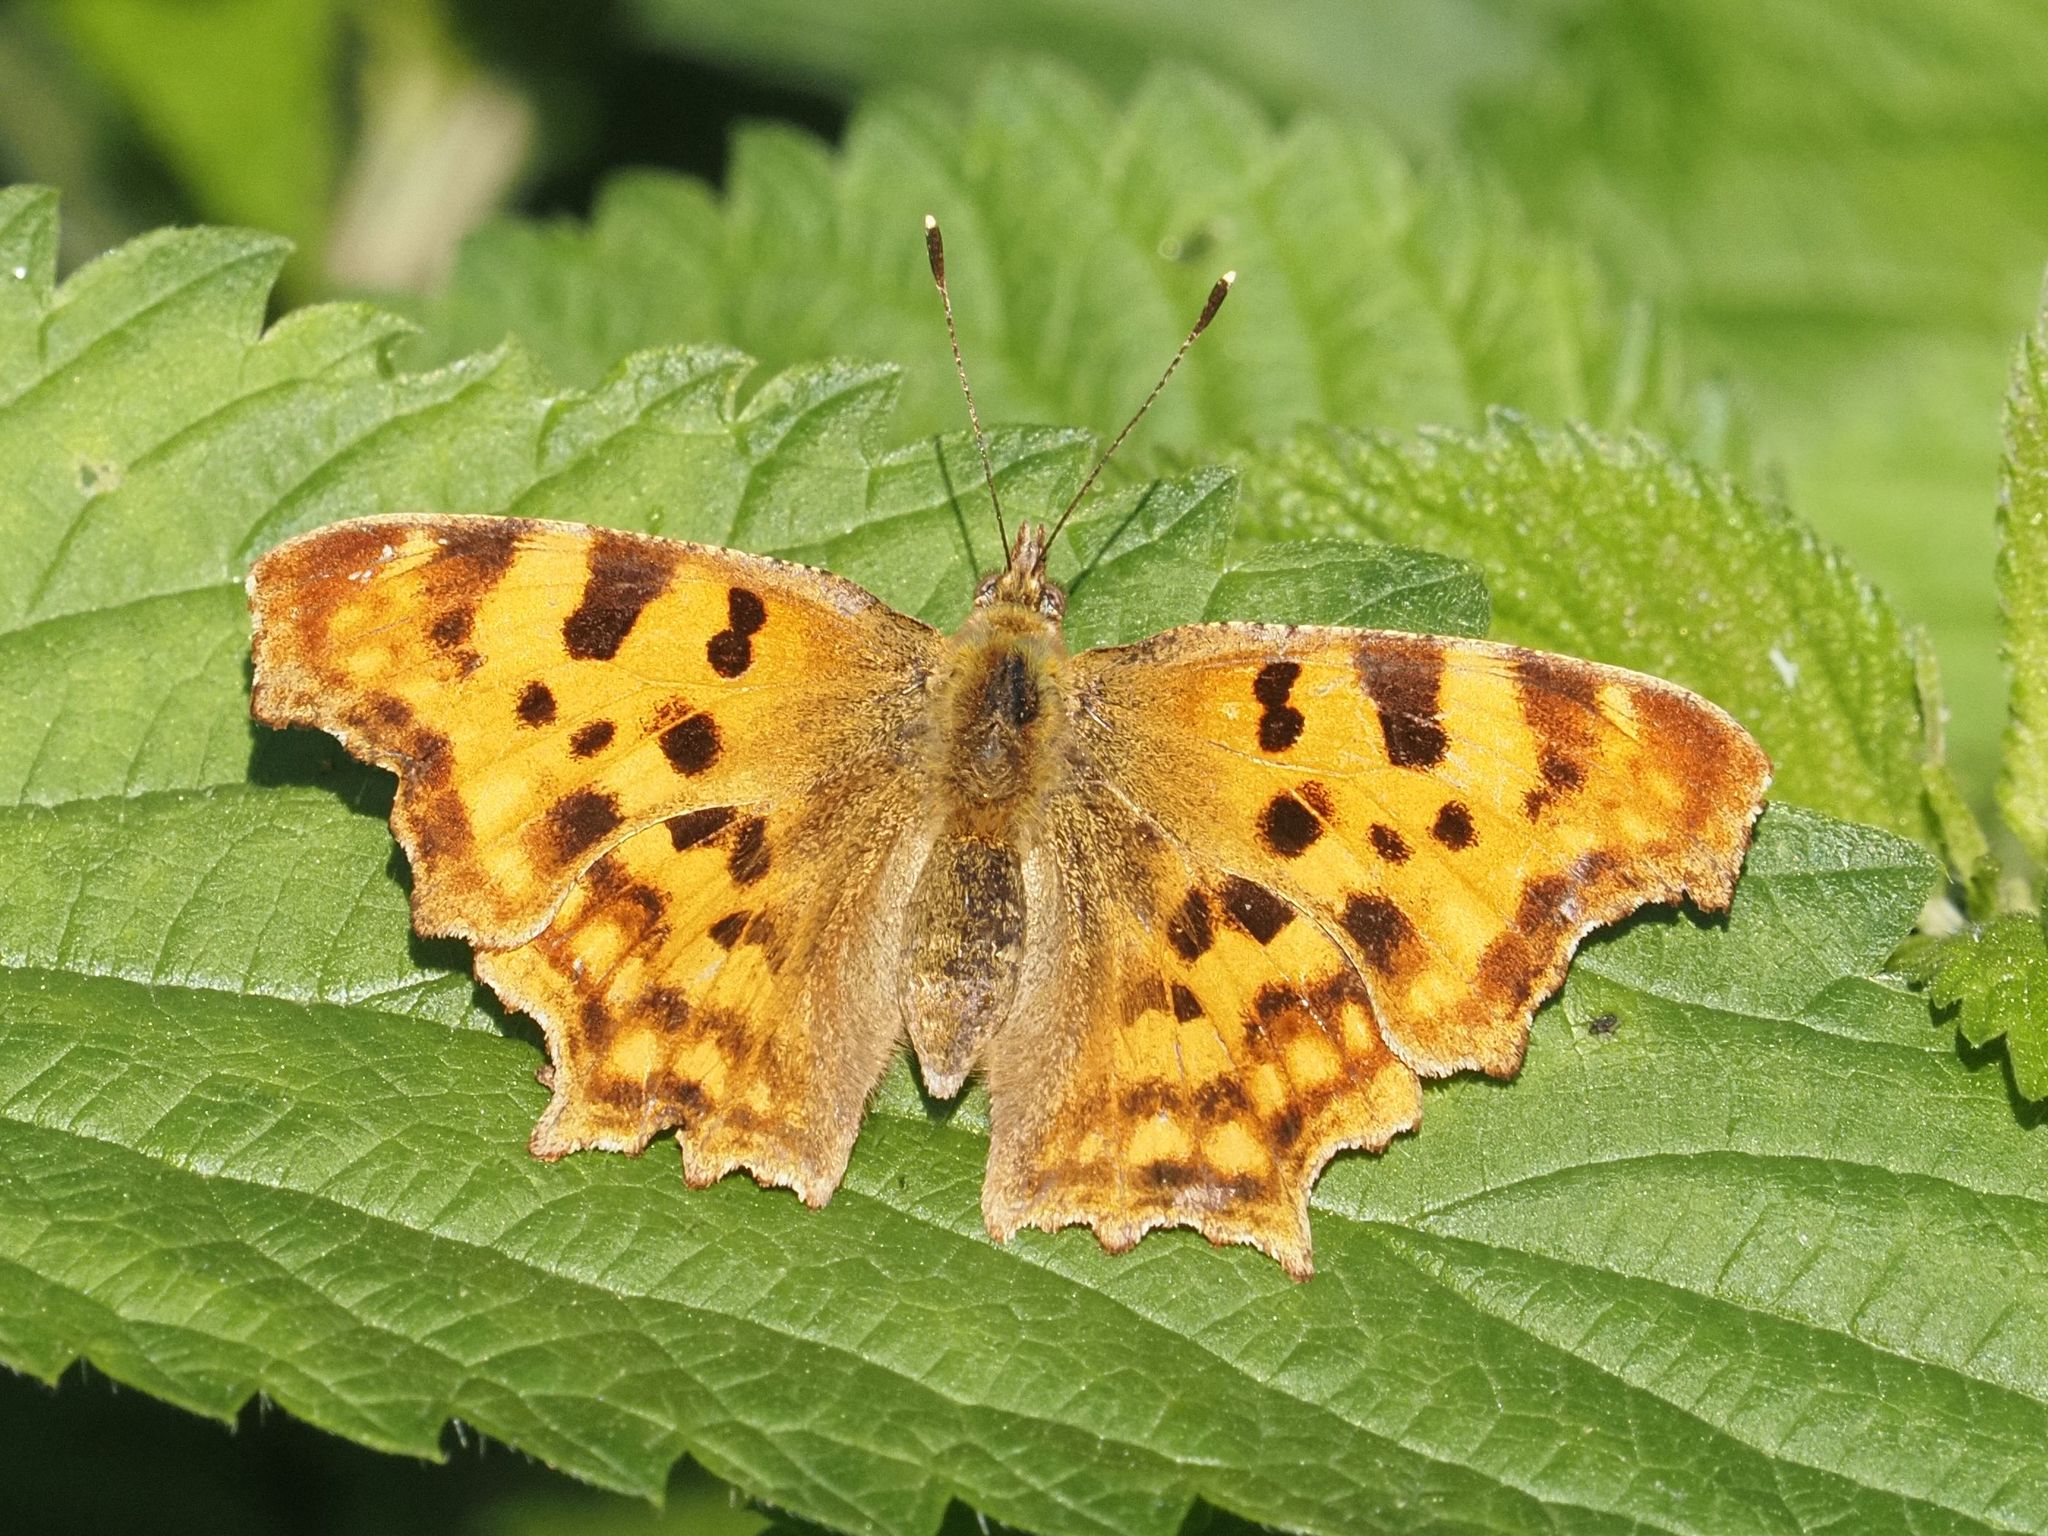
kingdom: Animalia
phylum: Arthropoda
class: Insecta
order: Lepidoptera
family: Nymphalidae
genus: Polygonia
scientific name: Polygonia c-album
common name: Comma
